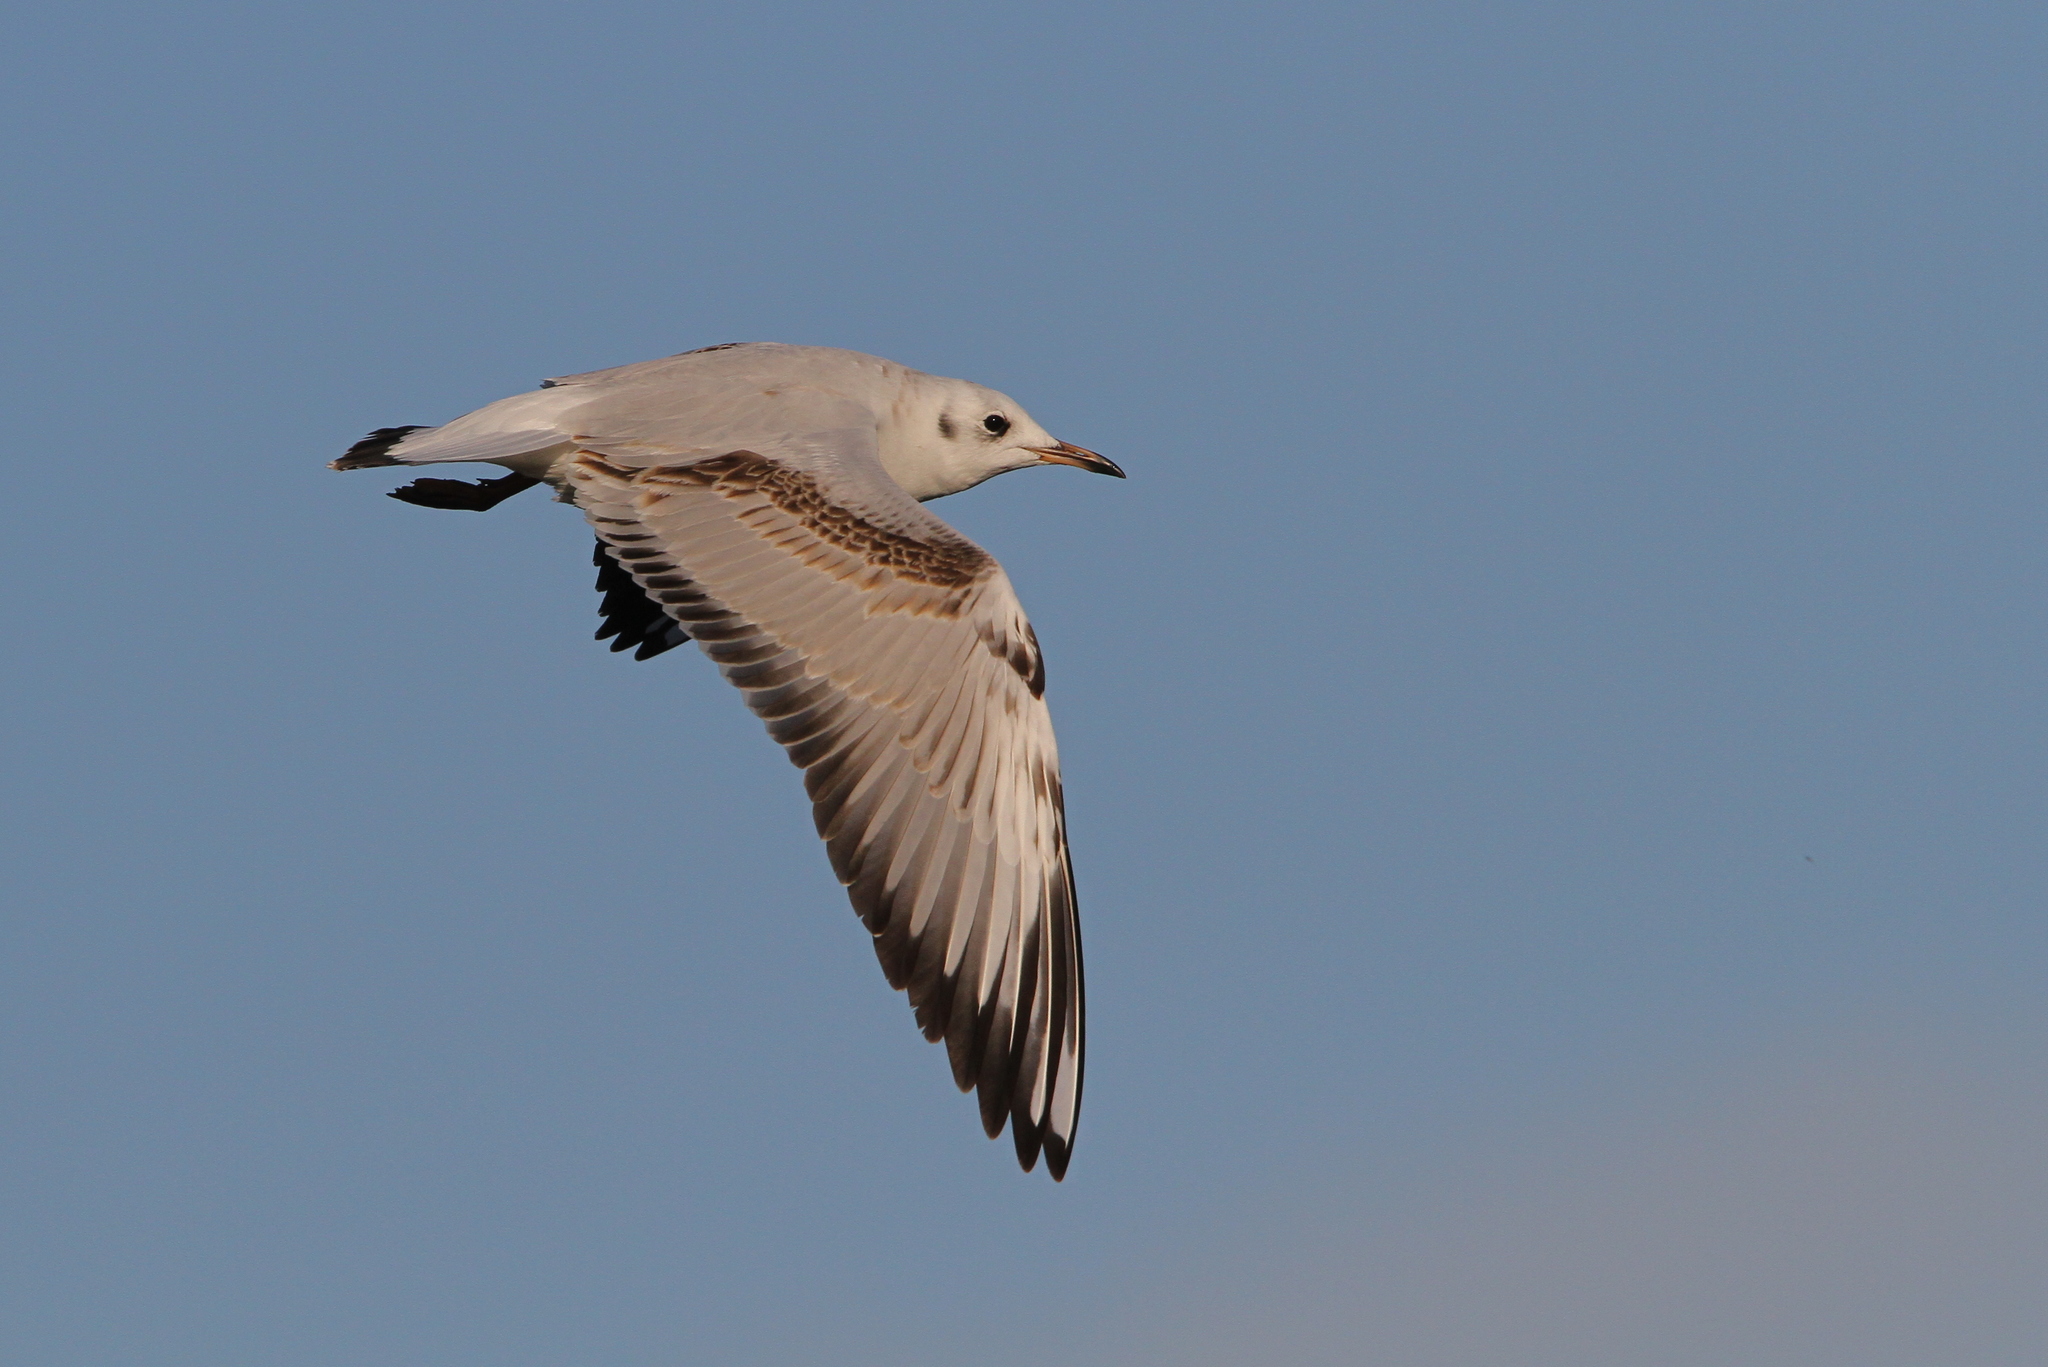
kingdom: Animalia
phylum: Chordata
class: Aves
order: Charadriiformes
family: Laridae
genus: Chroicocephalus
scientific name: Chroicocephalus ridibundus
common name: Black-headed gull
